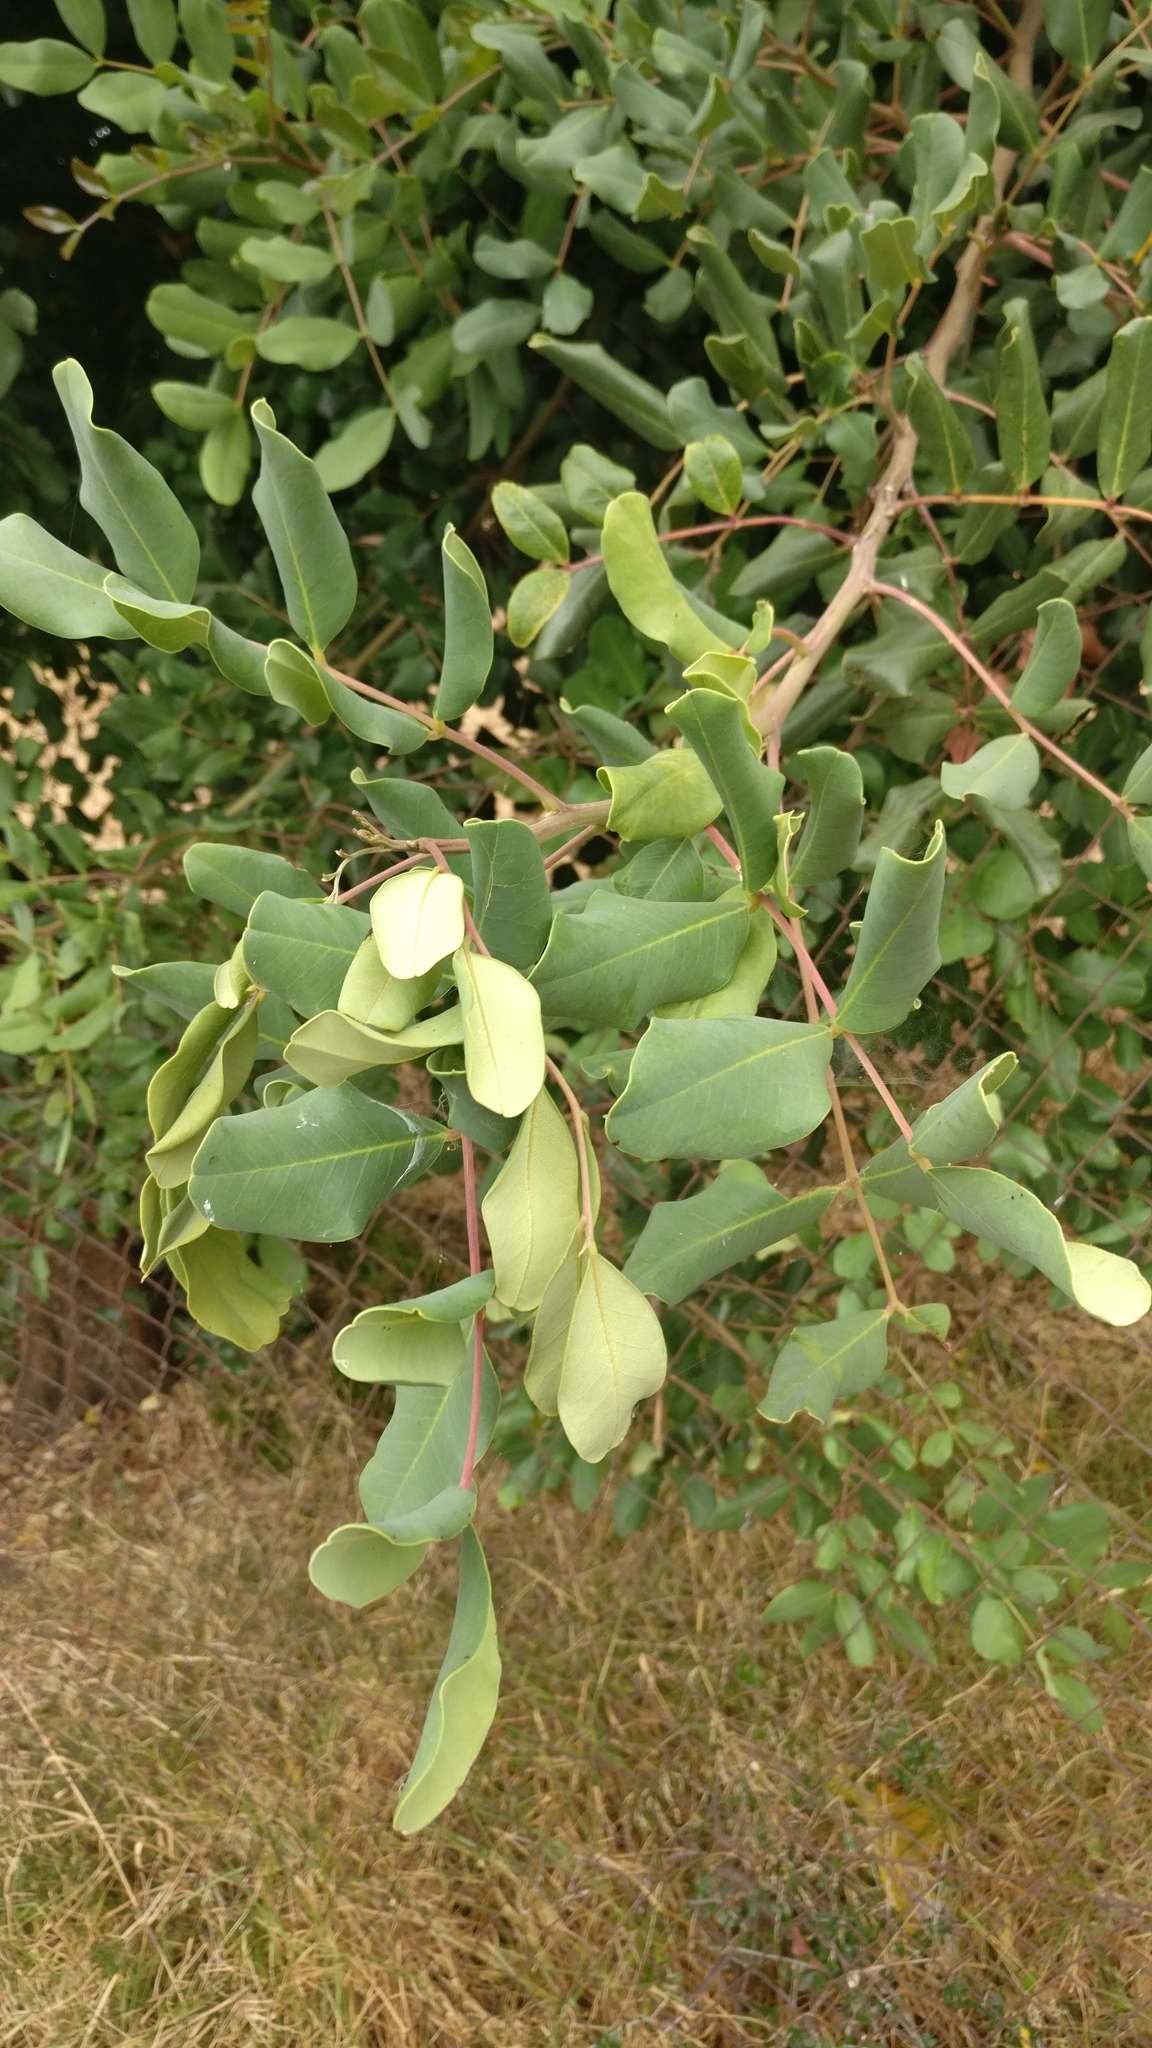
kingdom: Plantae
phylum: Tracheophyta
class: Magnoliopsida
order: Fabales
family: Fabaceae
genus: Ceratonia
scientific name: Ceratonia siliqua
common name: Carob
